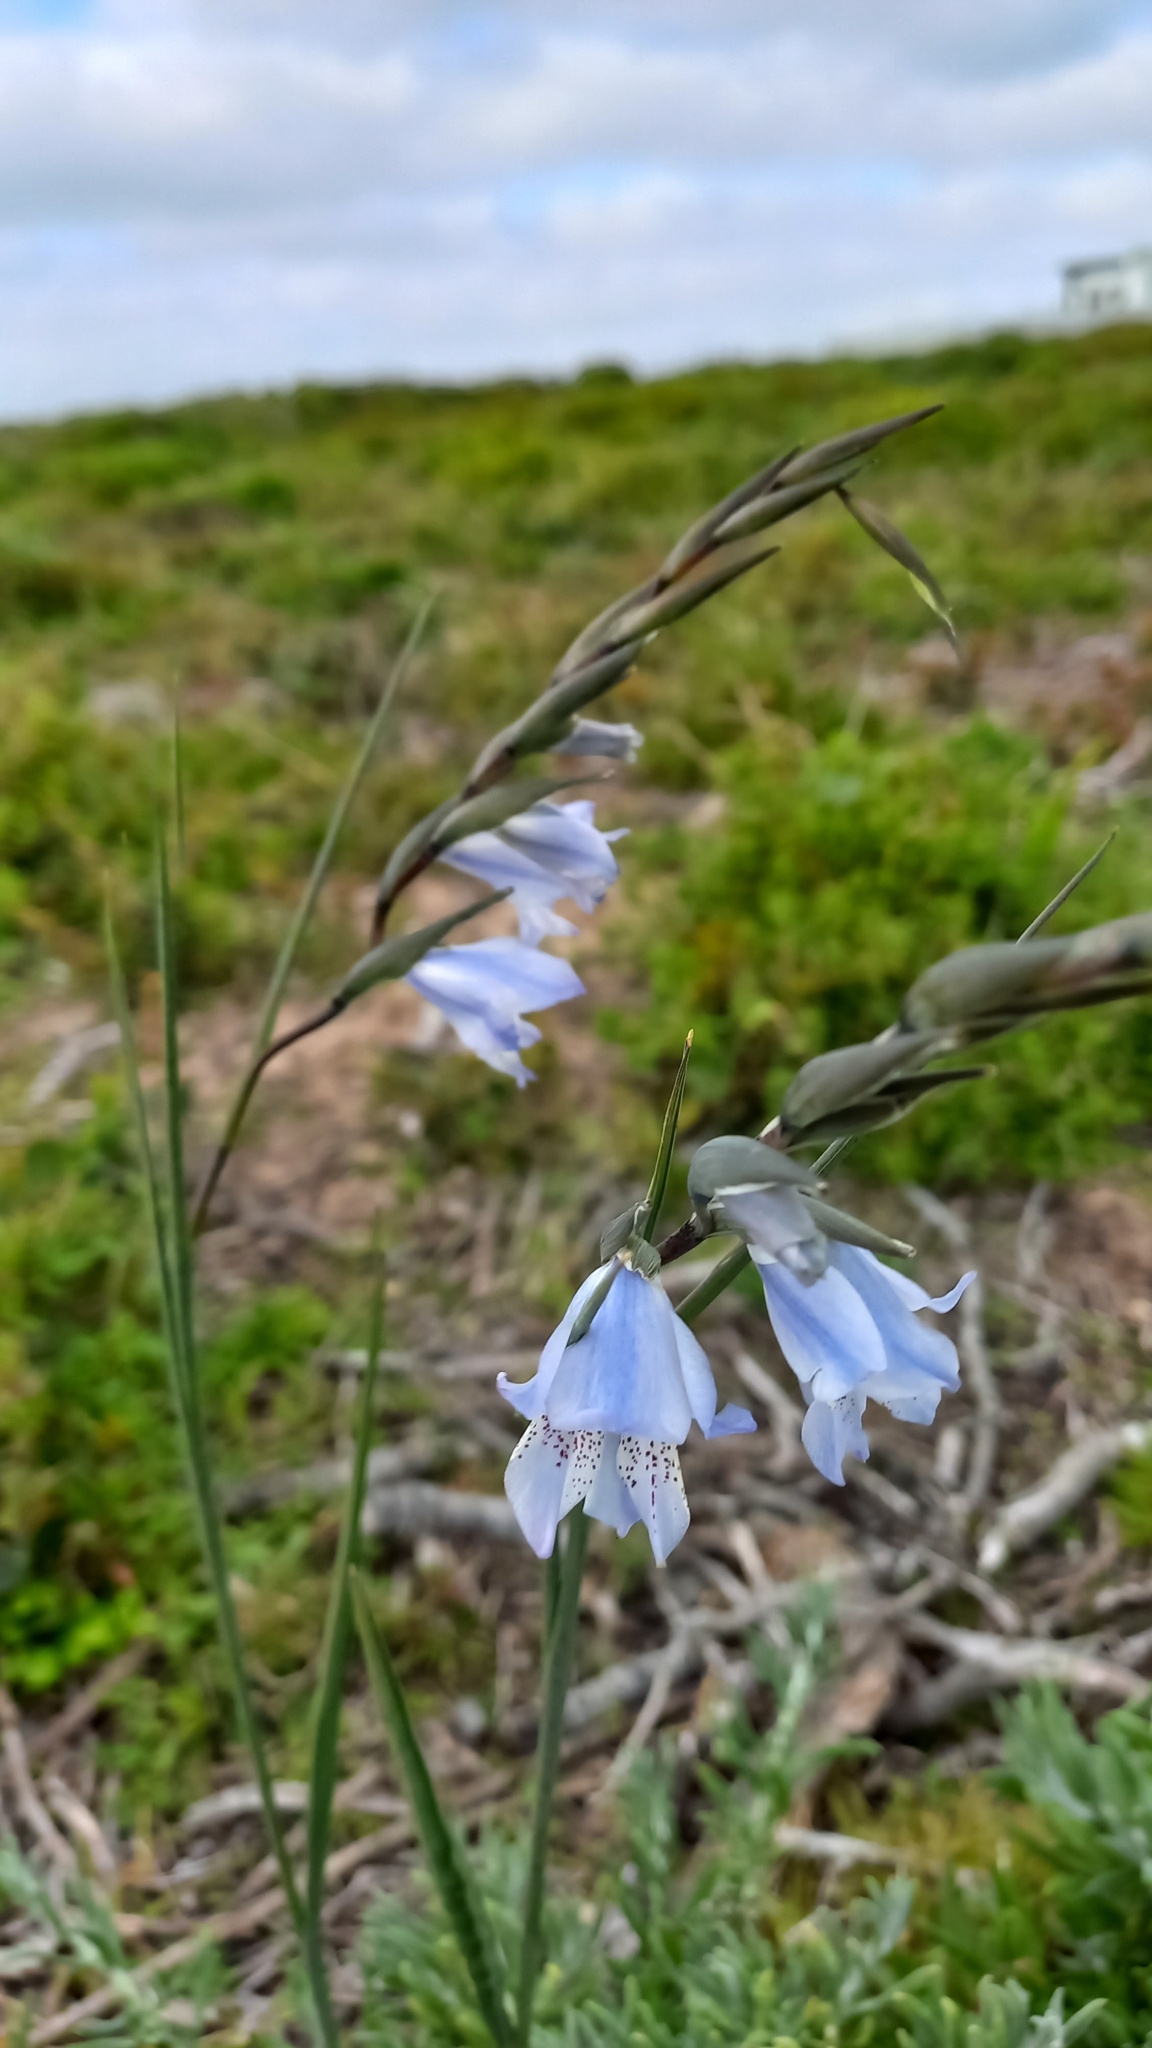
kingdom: Plantae
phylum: Tracheophyta
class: Liliopsida
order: Asparagales
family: Iridaceae
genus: Gladiolus
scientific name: Gladiolus caeruleus
